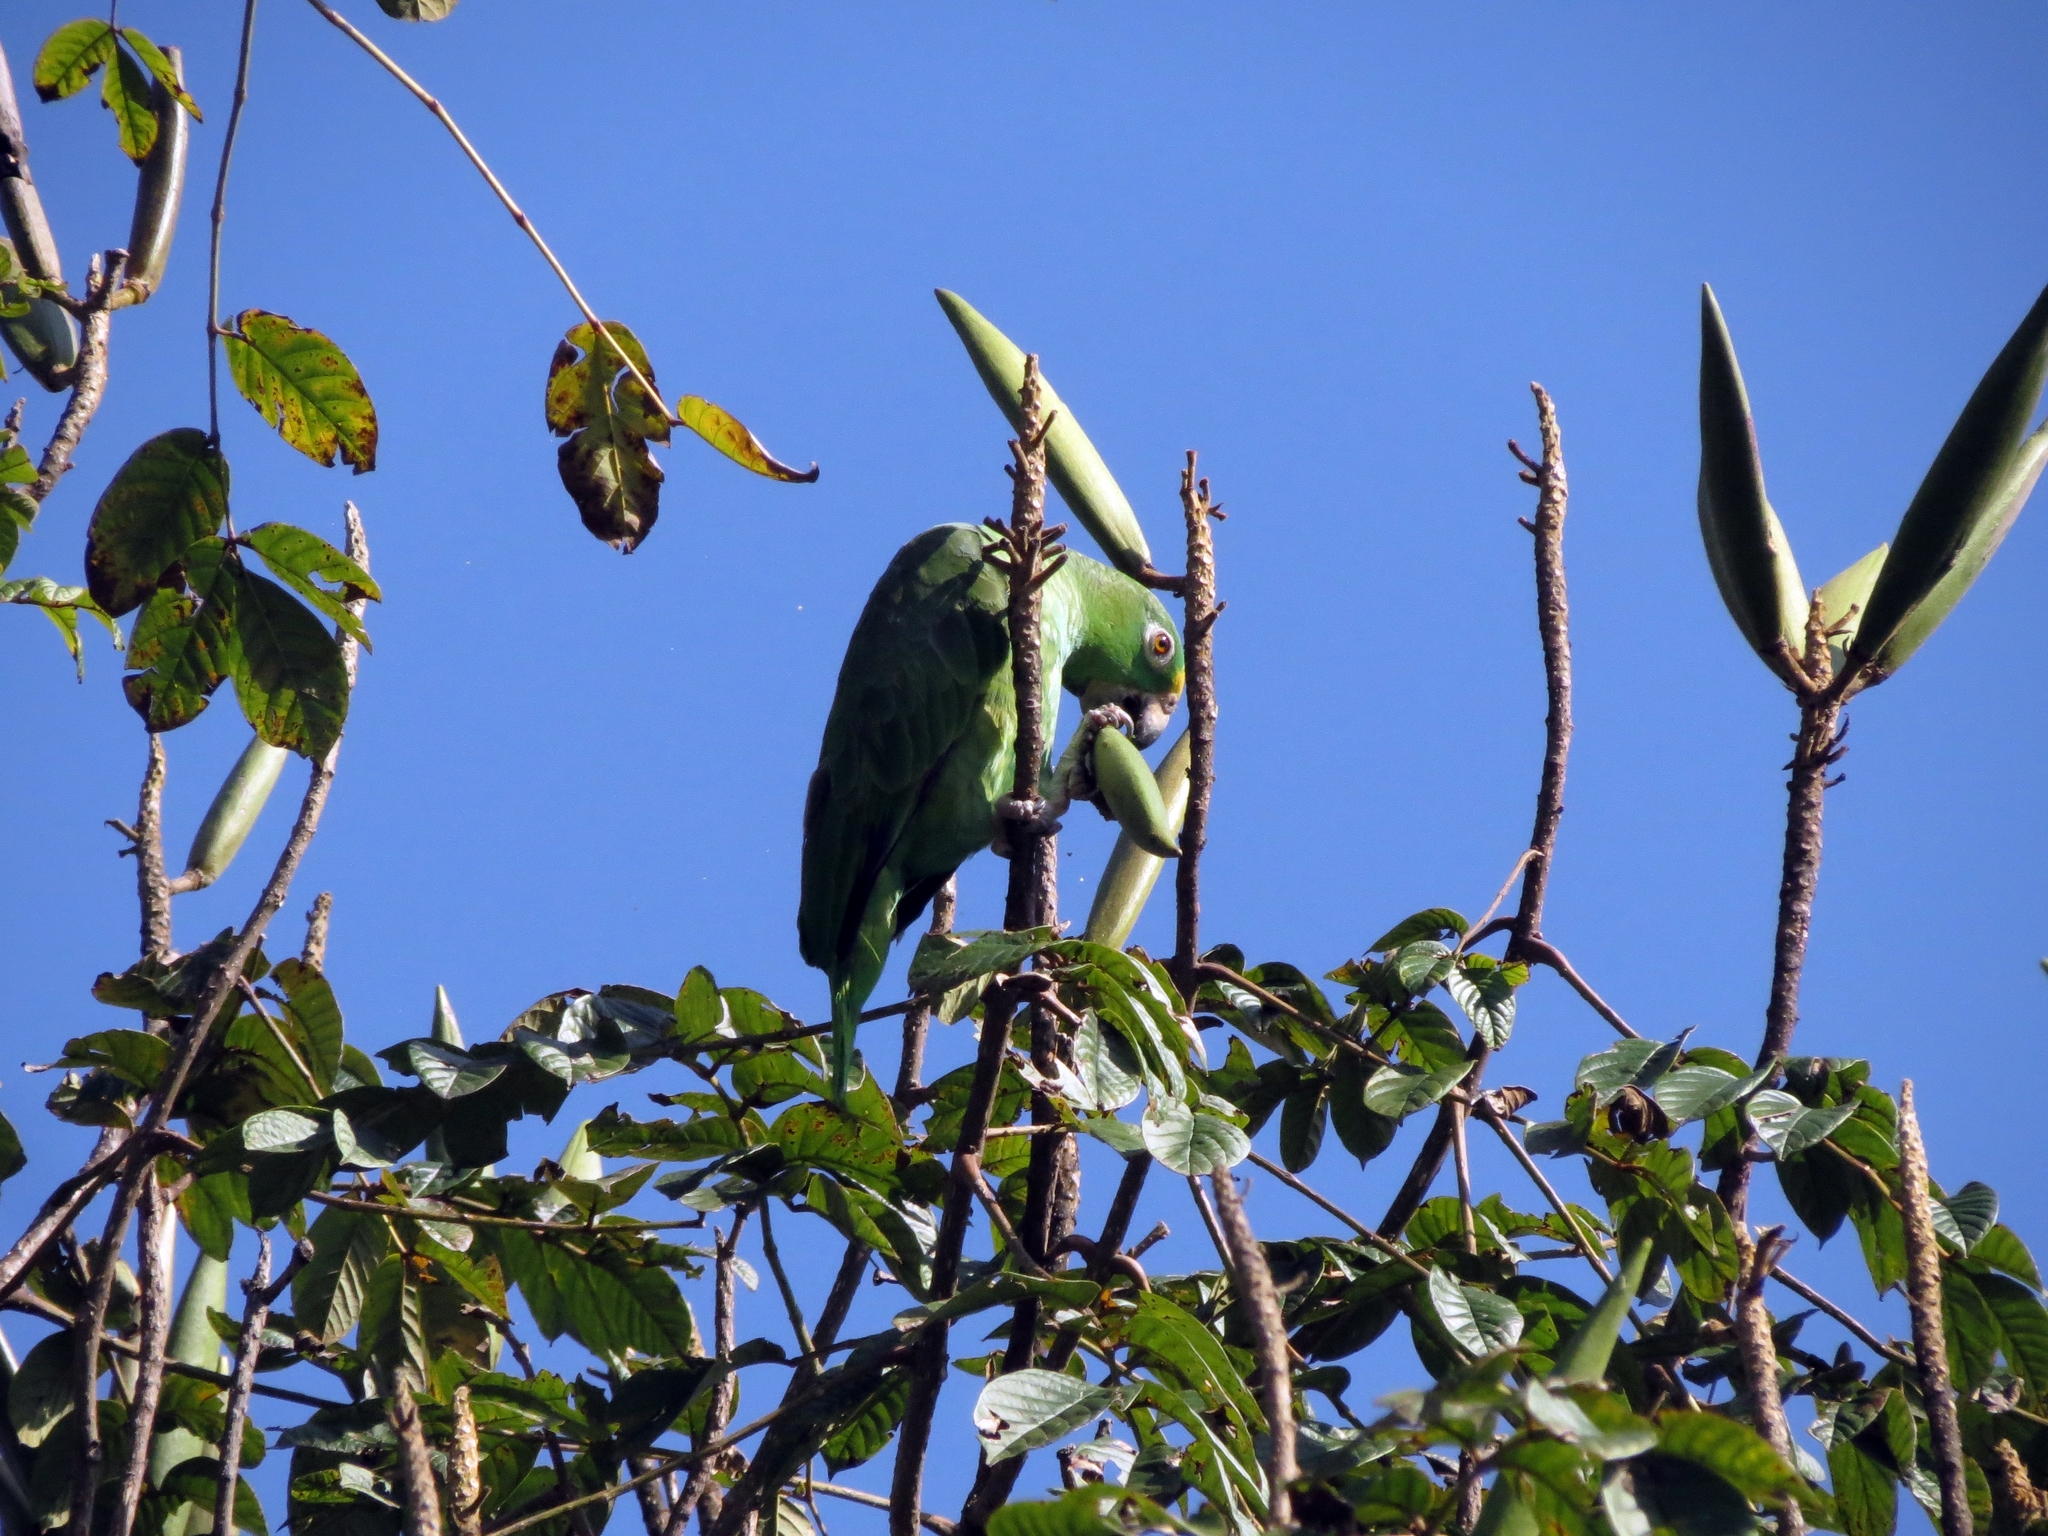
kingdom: Animalia
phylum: Chordata
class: Aves
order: Psittaciformes
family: Psittacidae
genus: Amazona
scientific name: Amazona ochrocephala
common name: Yellow-crowned amazon
